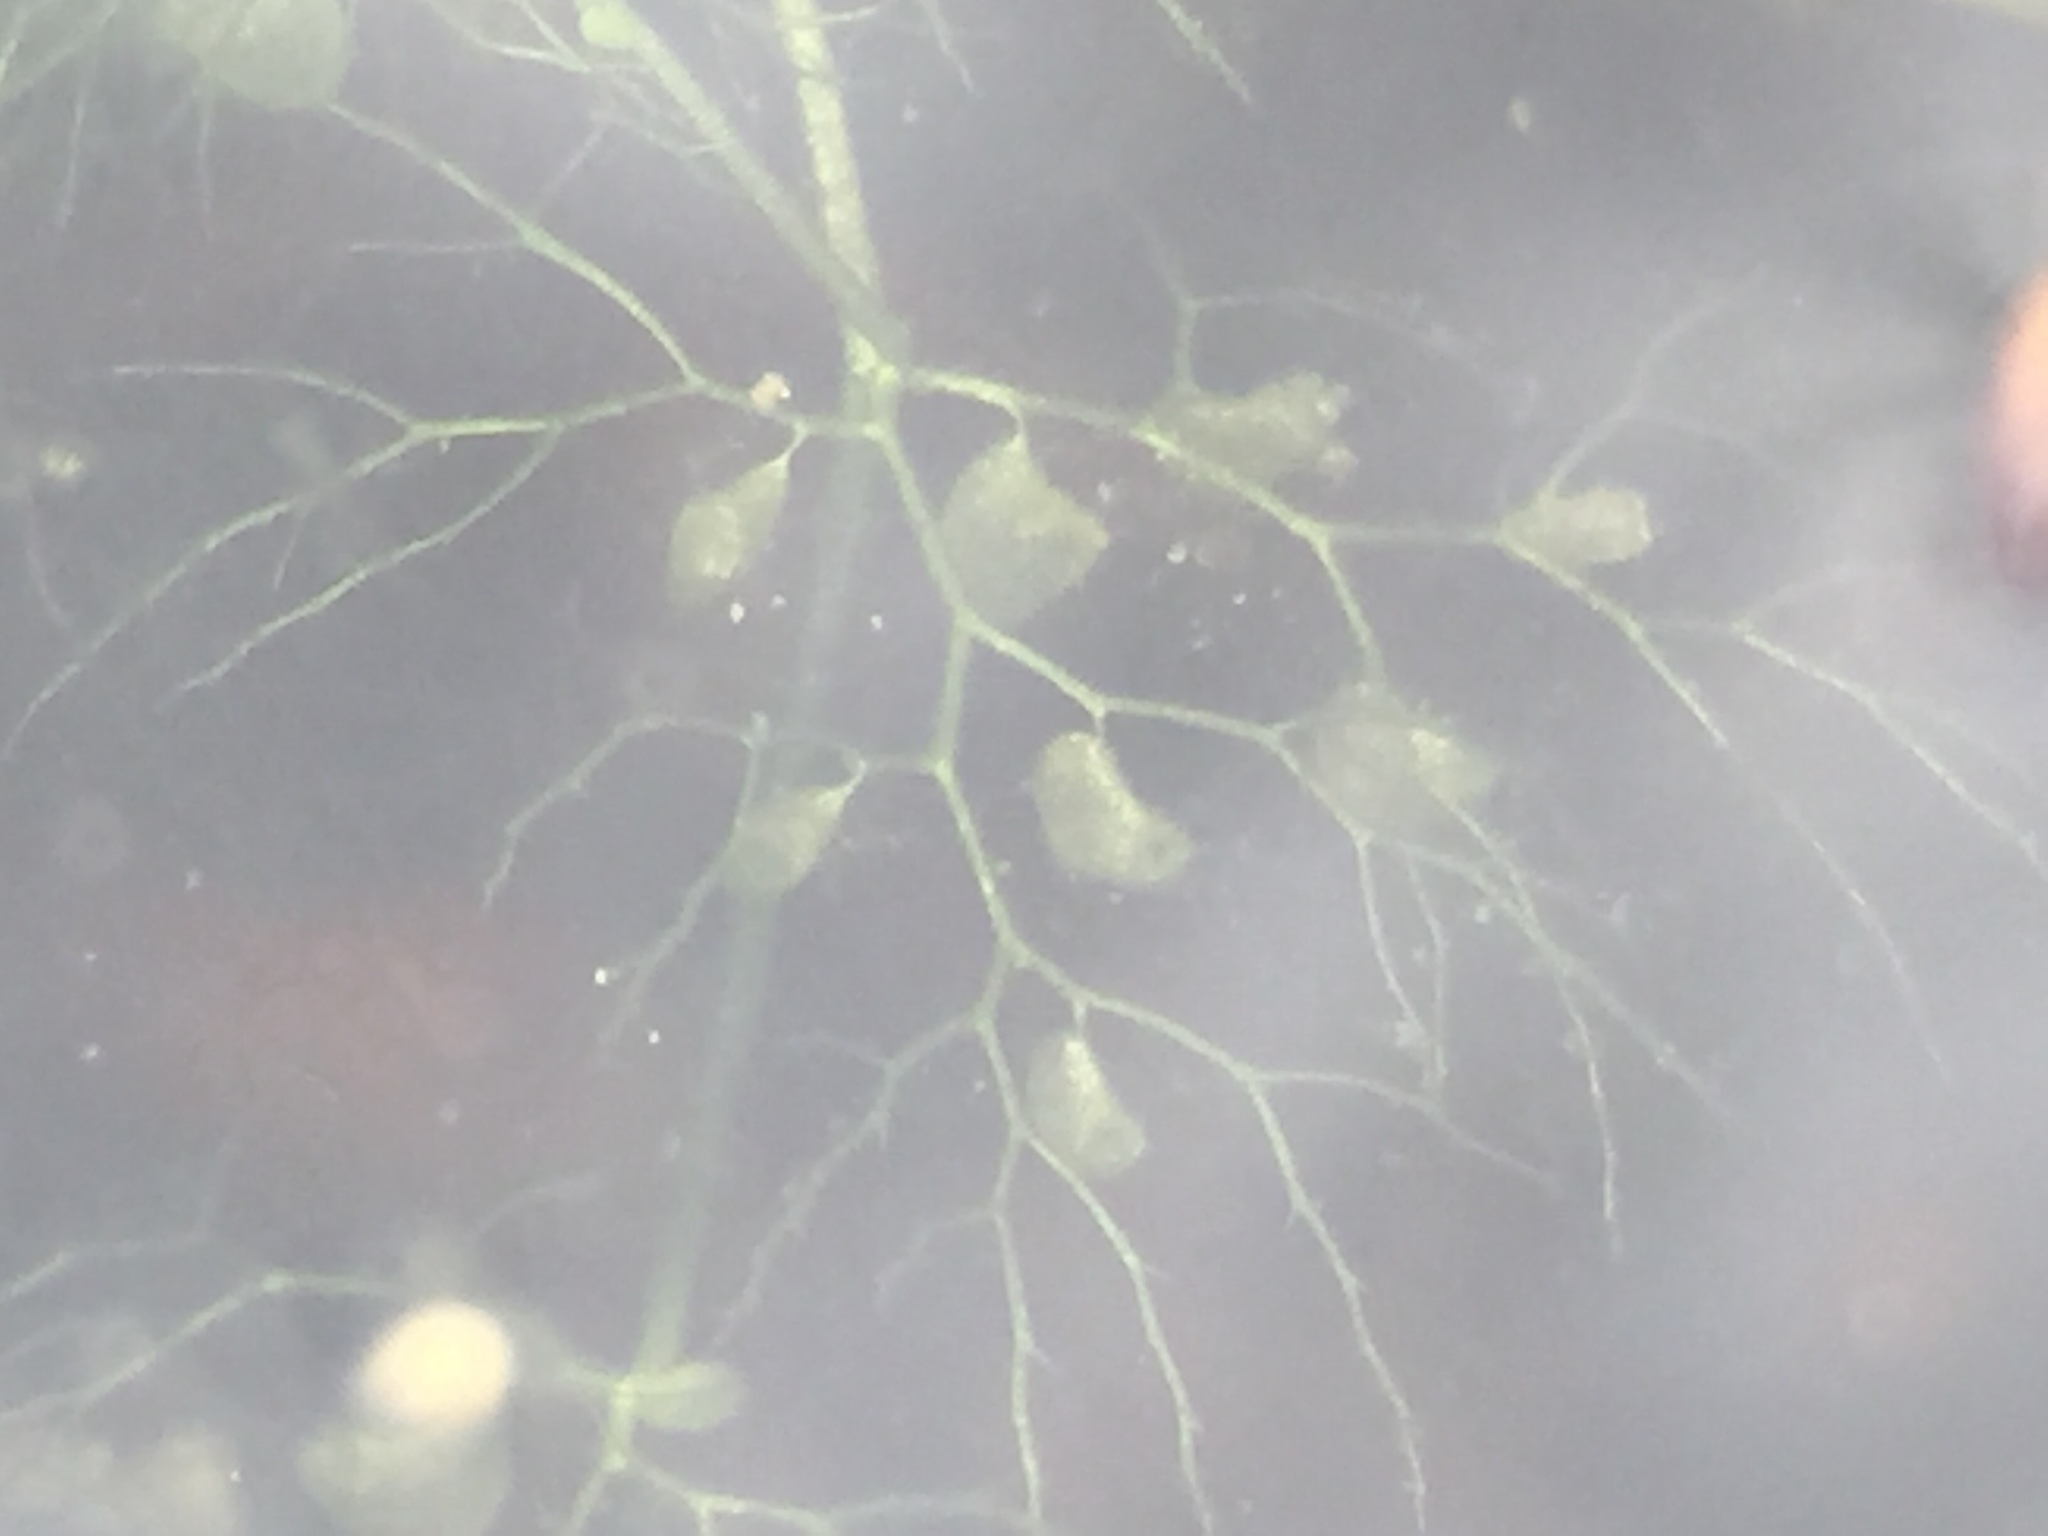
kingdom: Plantae
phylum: Tracheophyta
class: Magnoliopsida
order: Lamiales
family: Lentibulariaceae
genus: Utricularia
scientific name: Utricularia macrorhiza
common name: Common bladderwort
